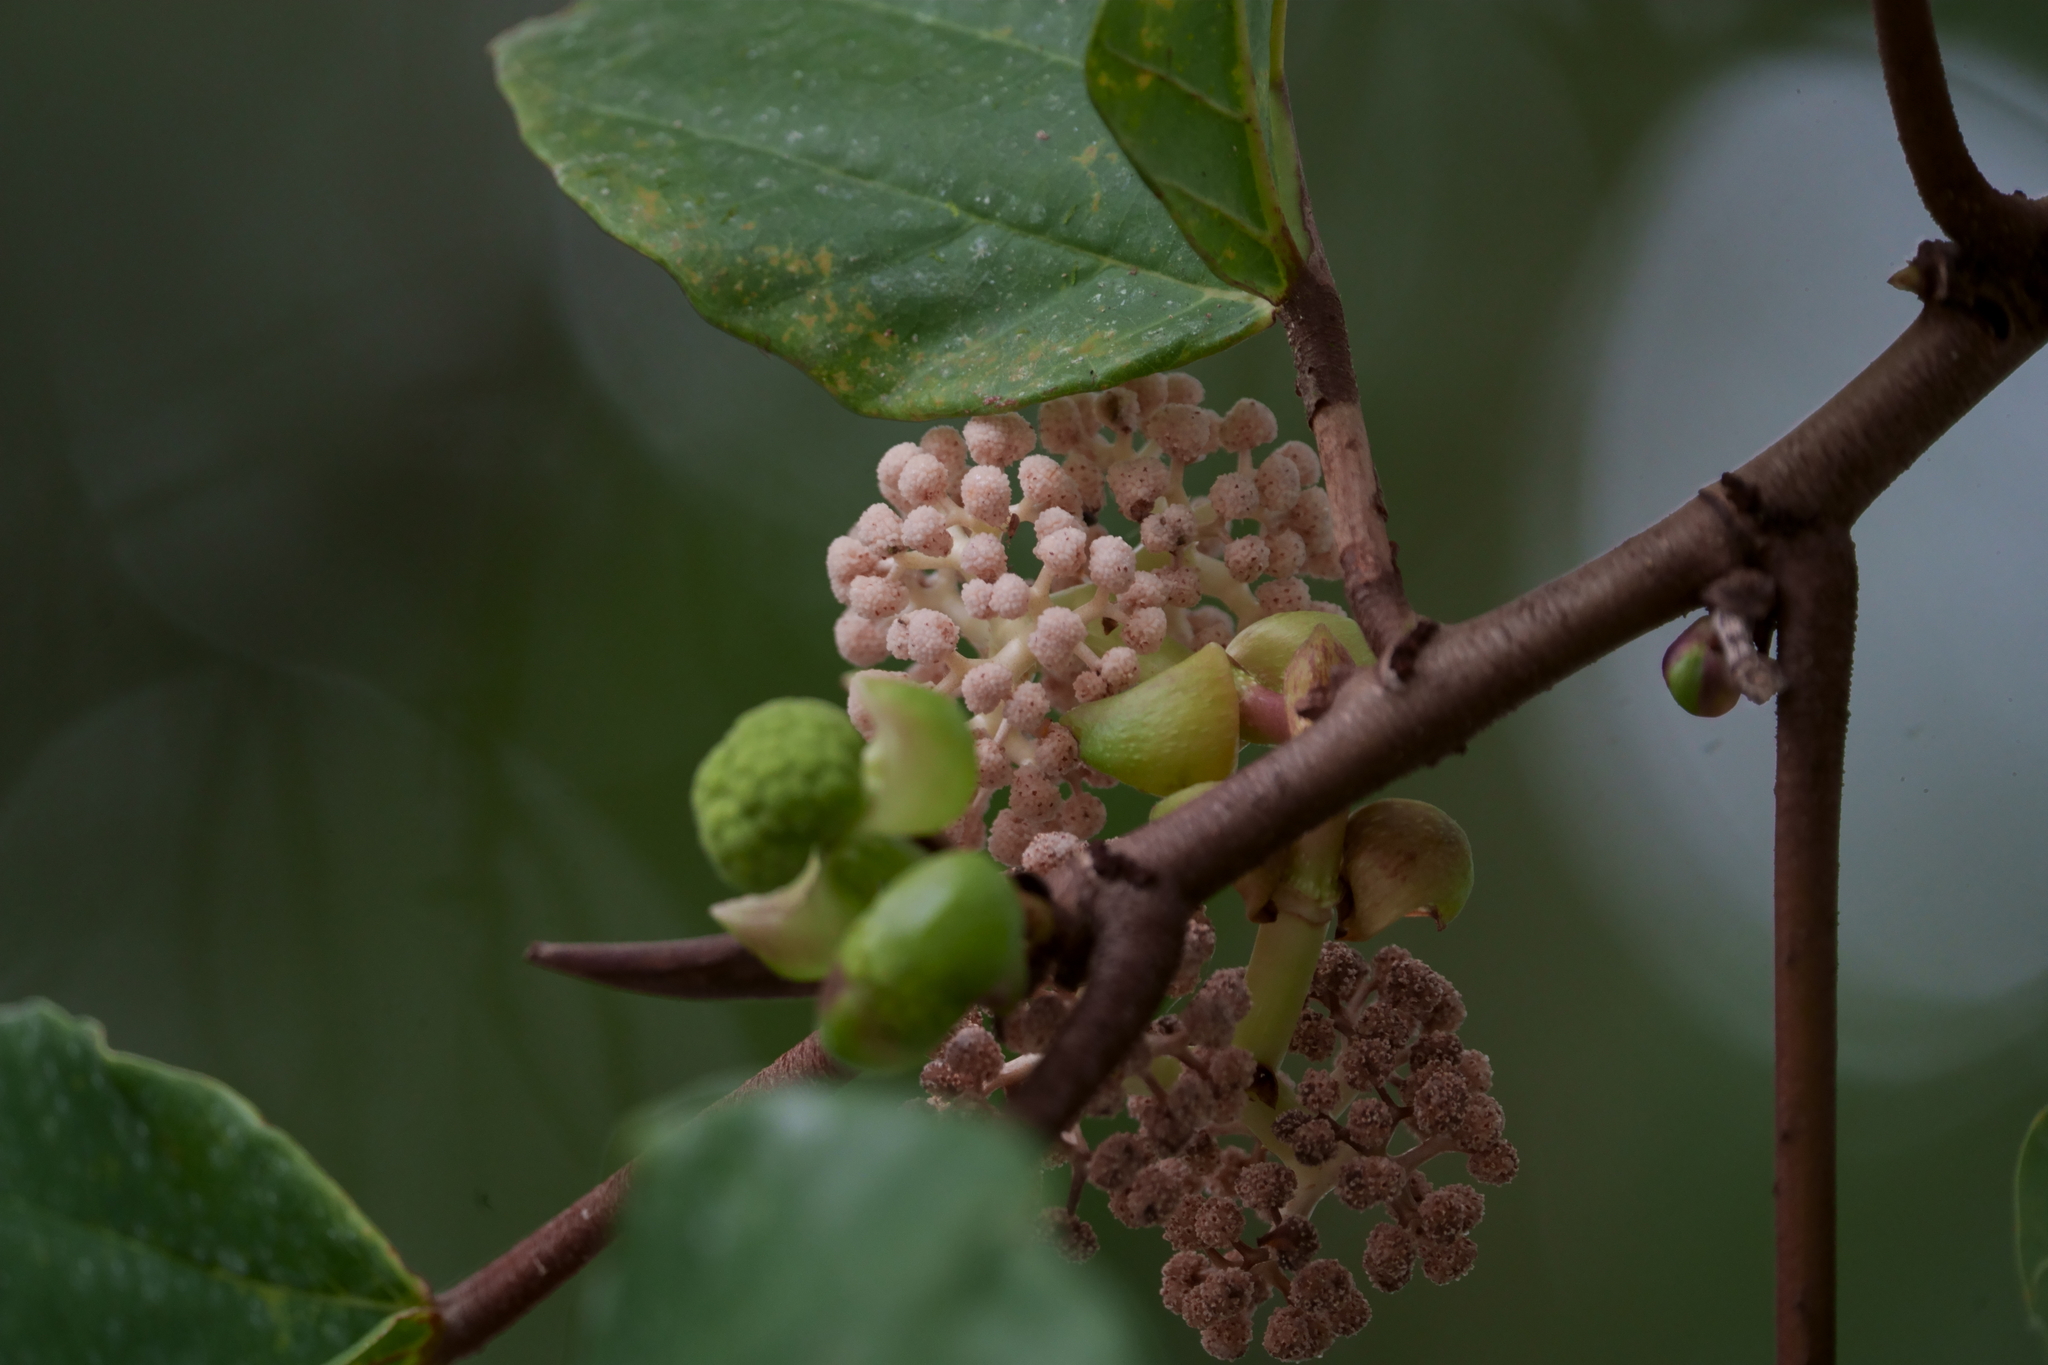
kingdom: Plantae
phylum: Tracheophyta
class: Magnoliopsida
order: Rosales
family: Urticaceae
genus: Poikilospermum
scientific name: Poikilospermum suaveolens
